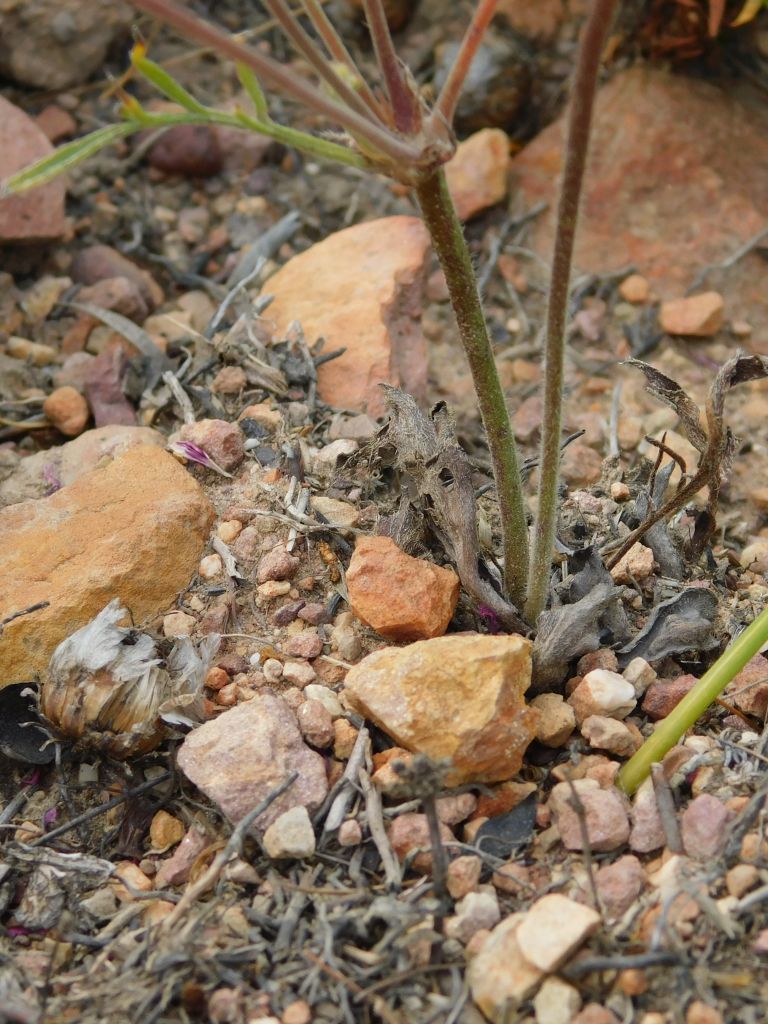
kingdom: Plantae
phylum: Tracheophyta
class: Magnoliopsida
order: Geraniales
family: Geraniaceae
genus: Pelargonium
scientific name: Pelargonium caledonicum
